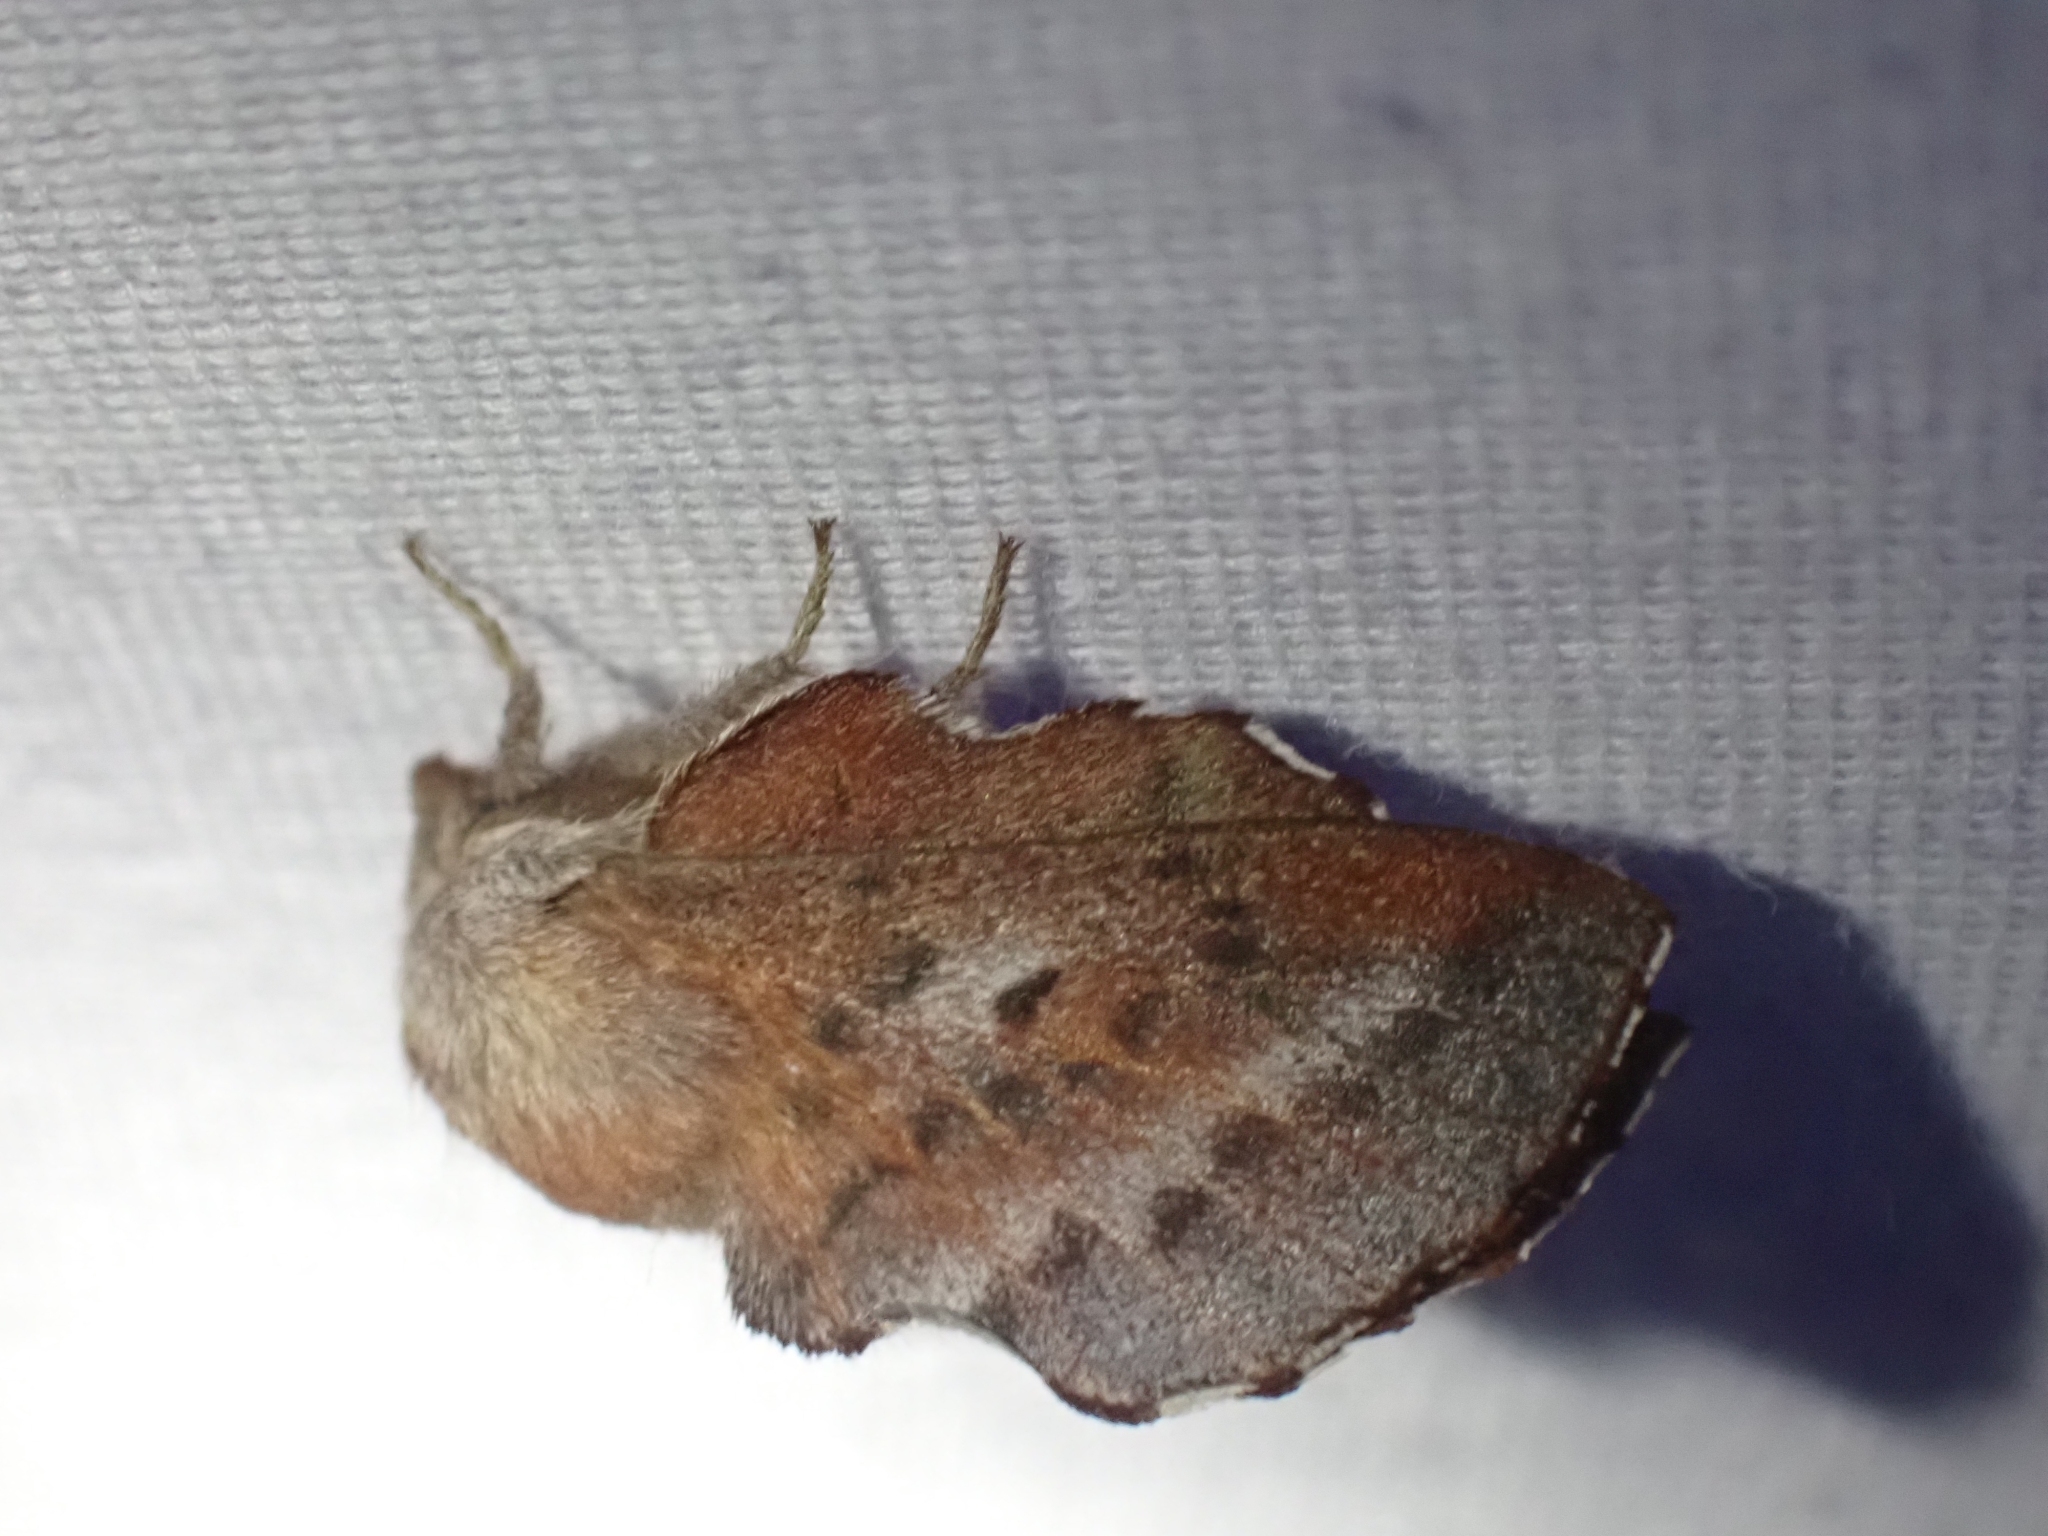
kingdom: Animalia
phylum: Arthropoda
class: Insecta
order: Lepidoptera
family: Lasiocampidae
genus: Phyllodesma
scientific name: Phyllodesma americana
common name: American lappet moth
